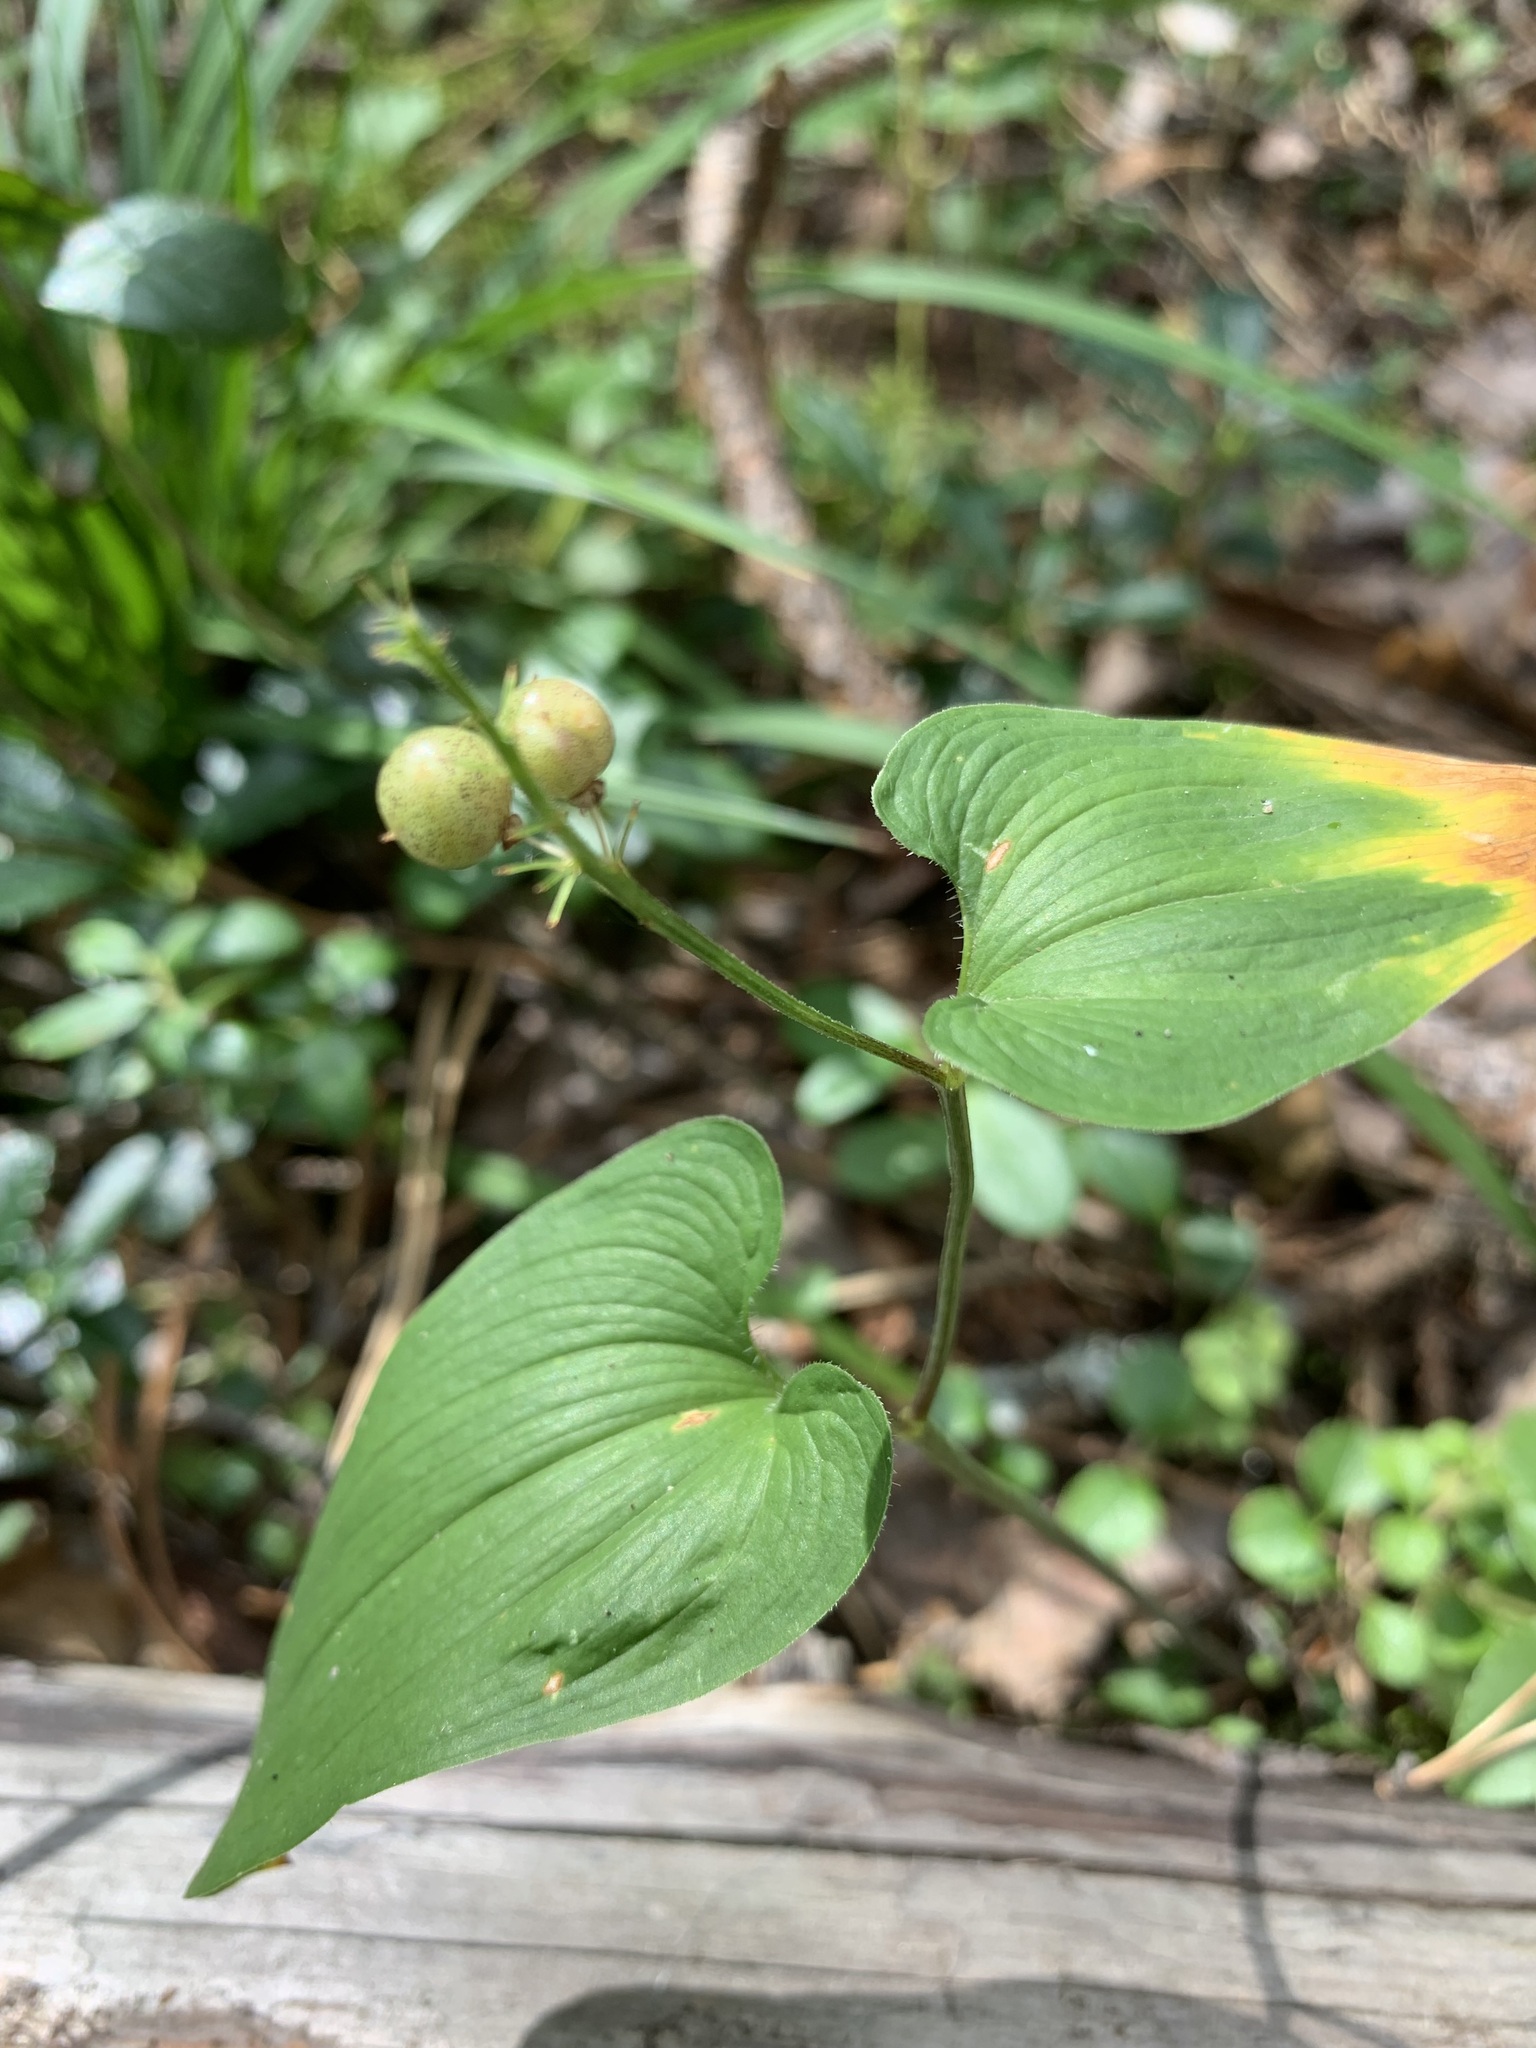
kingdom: Plantae
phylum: Tracheophyta
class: Liliopsida
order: Asparagales
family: Asparagaceae
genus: Maianthemum
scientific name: Maianthemum bifolium
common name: May lily
